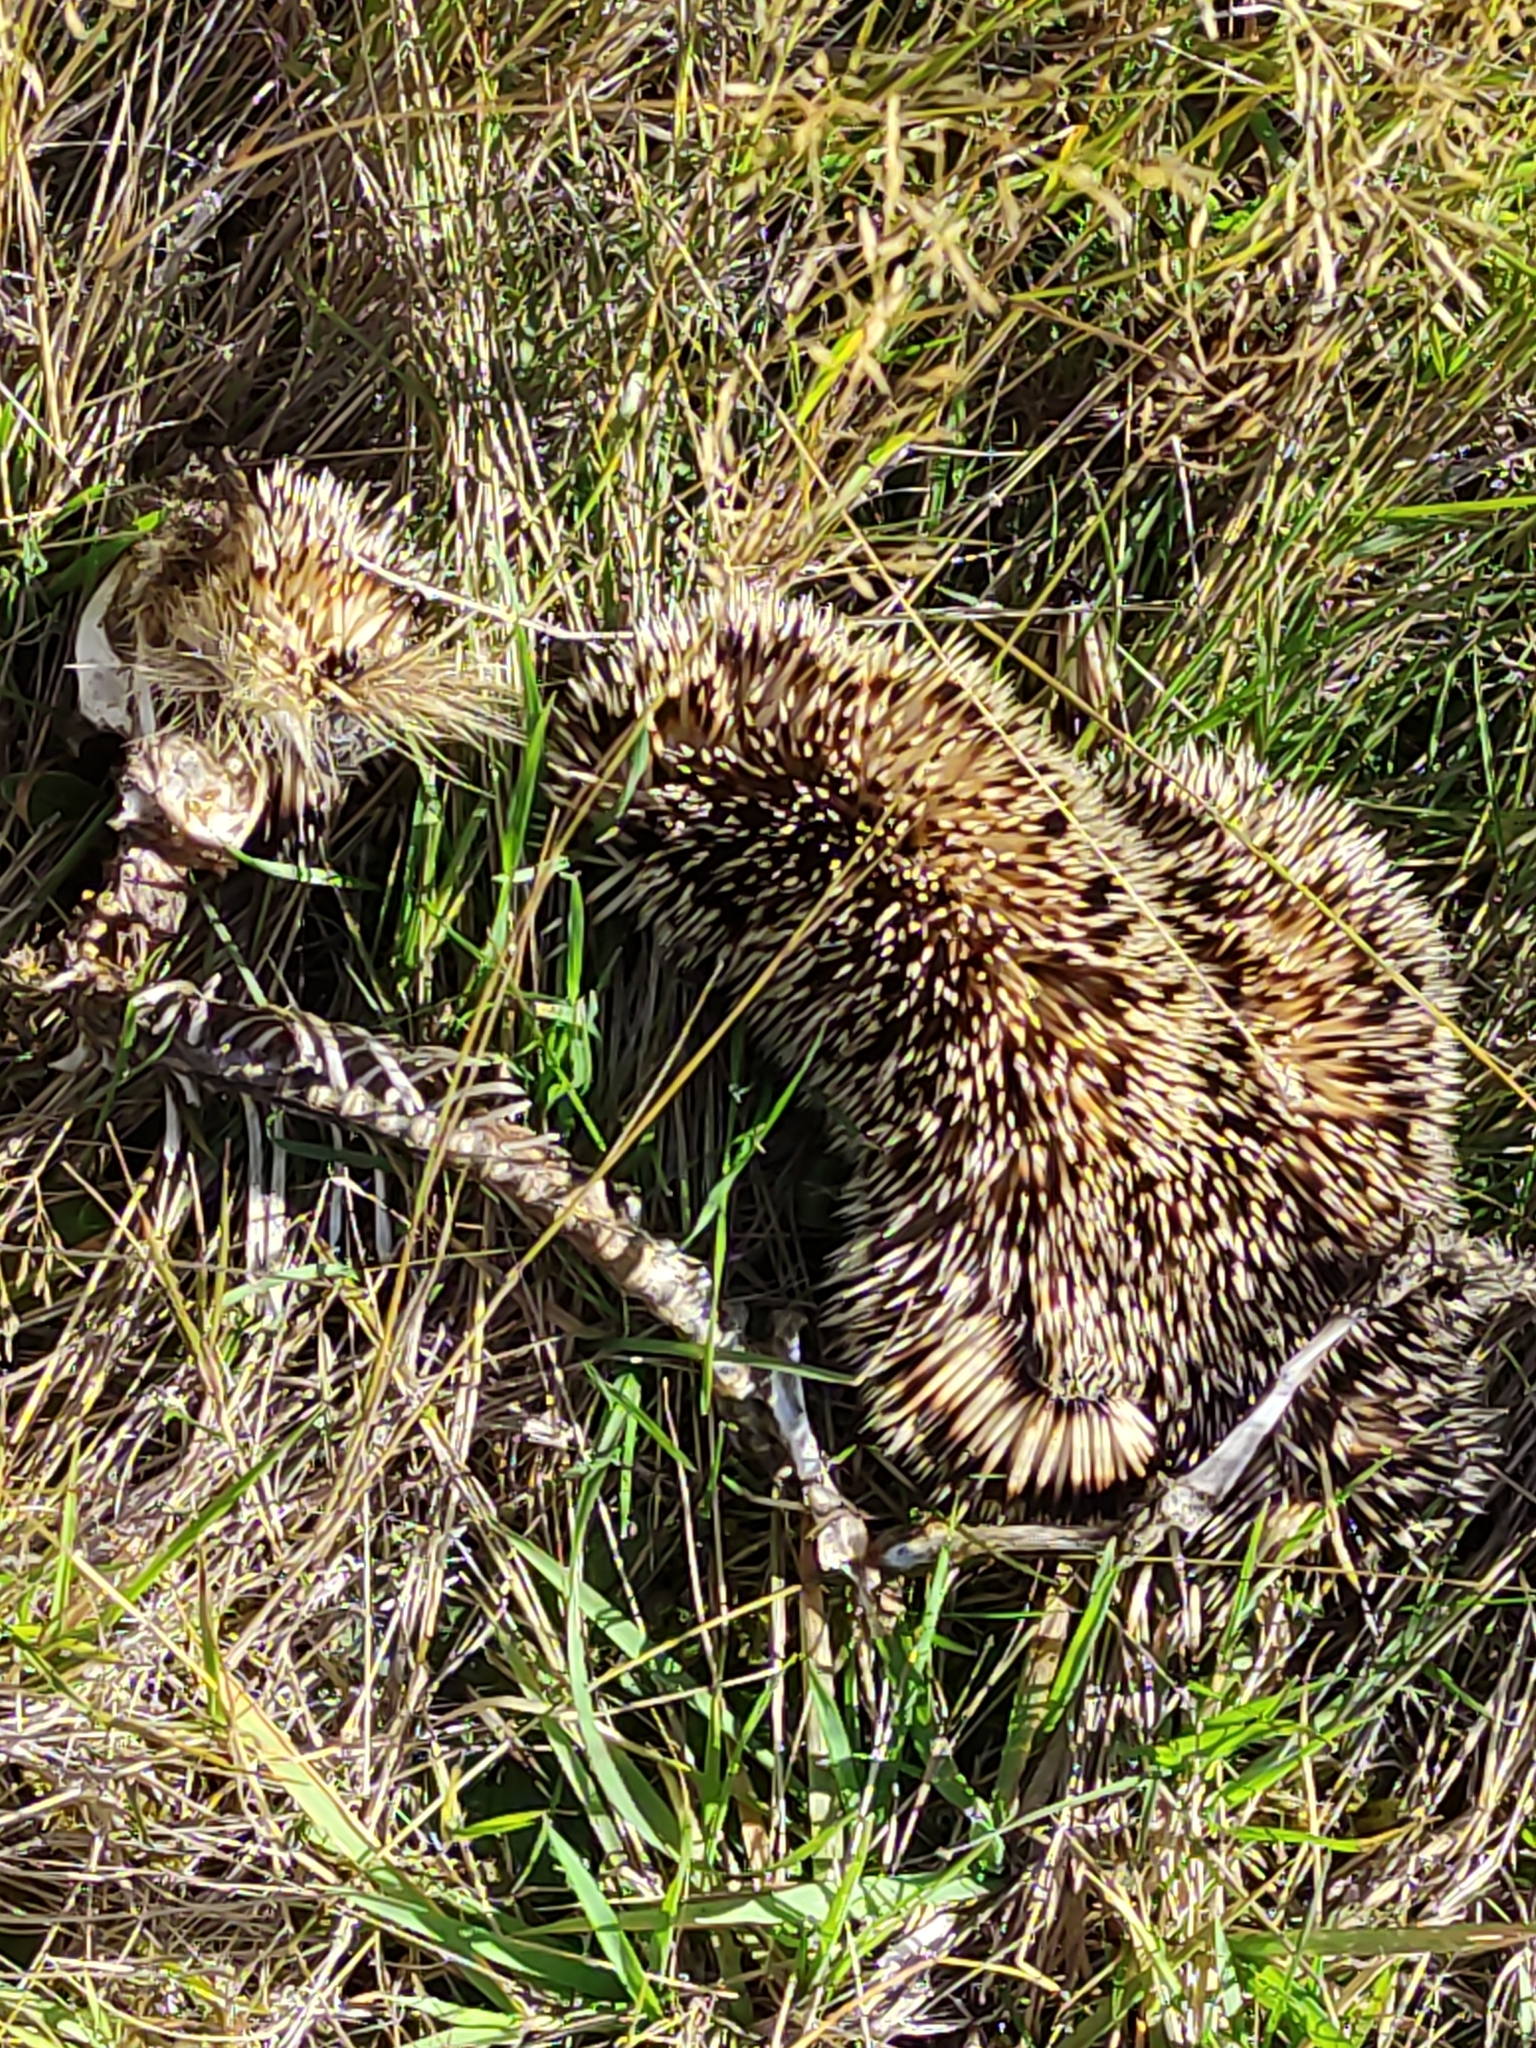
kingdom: Animalia
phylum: Chordata
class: Mammalia
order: Erinaceomorpha
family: Erinaceidae
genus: Erinaceus
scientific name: Erinaceus europaeus
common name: West european hedgehog
